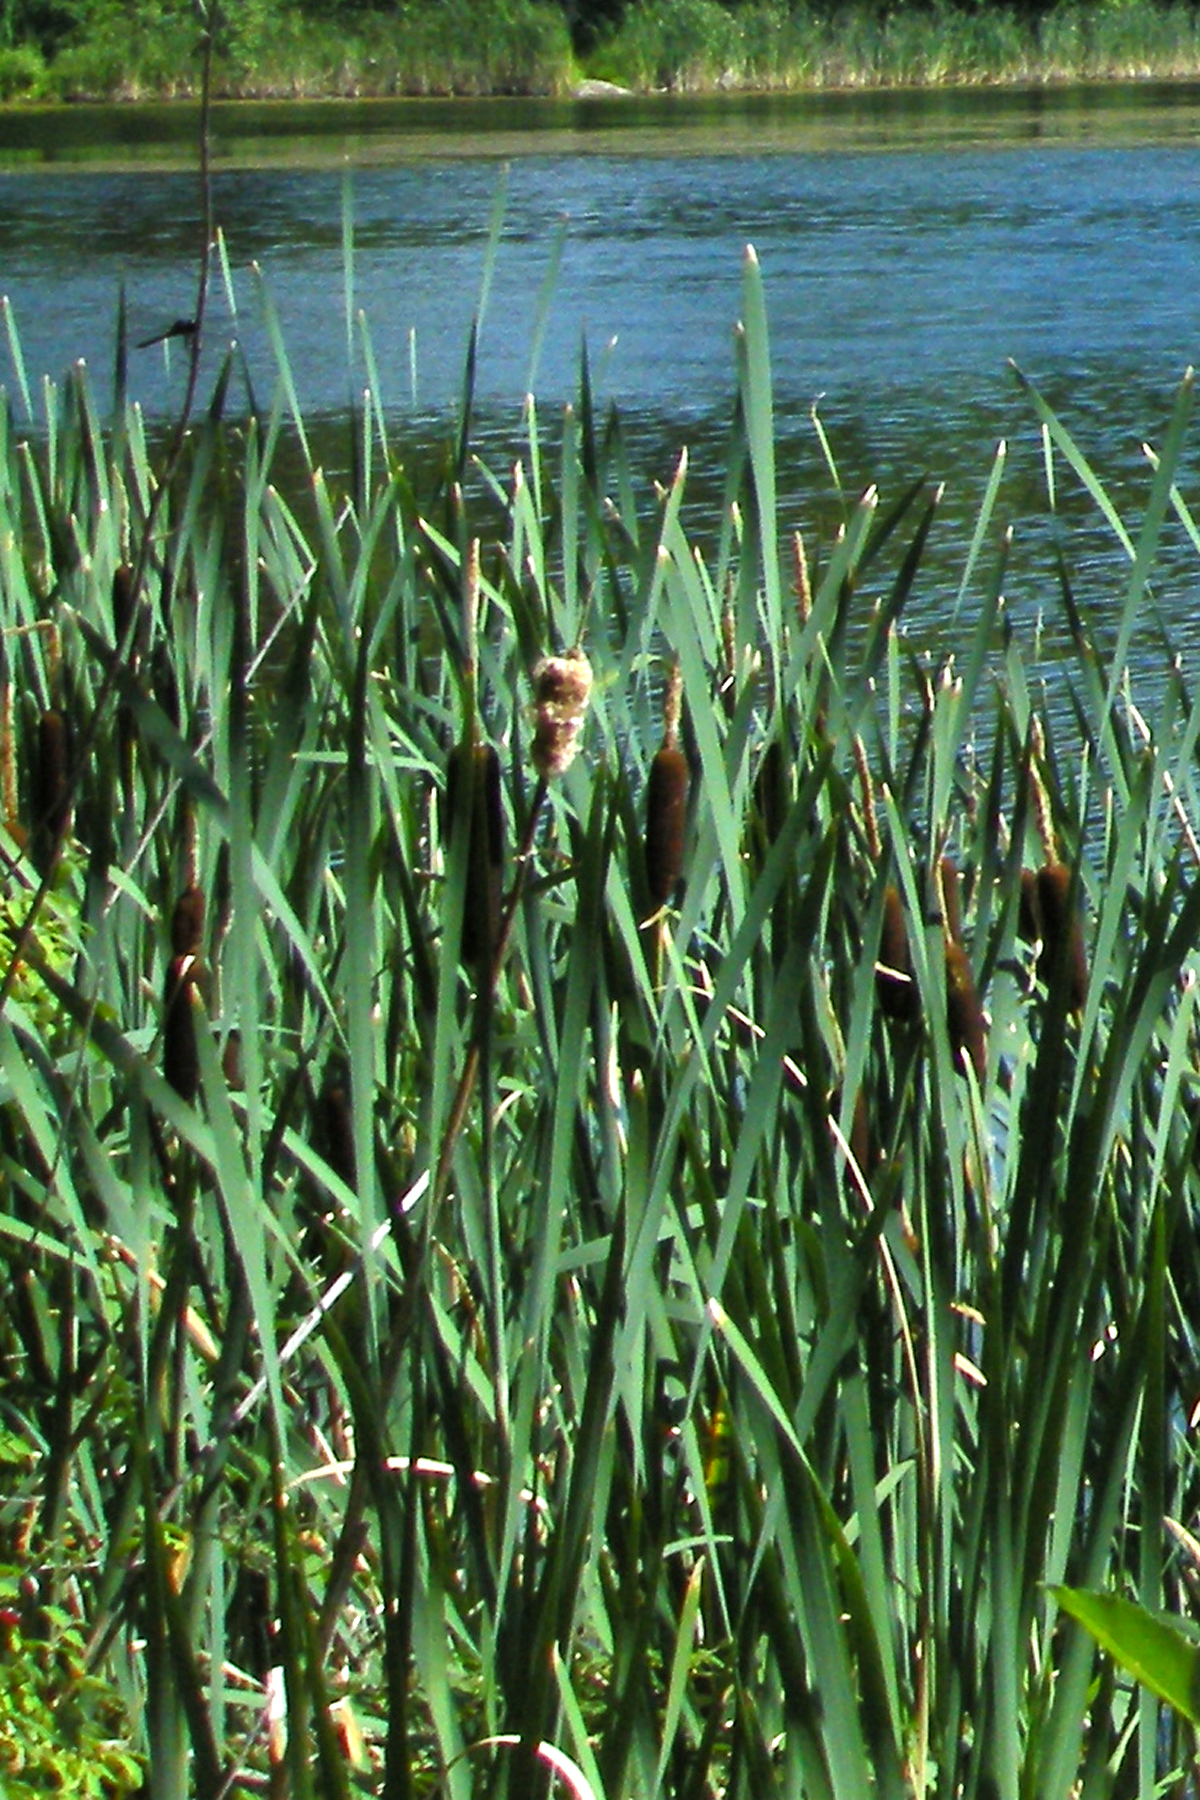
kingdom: Plantae
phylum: Tracheophyta
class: Liliopsida
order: Poales
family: Typhaceae
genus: Typha
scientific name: Typha latifolia
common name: Broadleaf cattail
